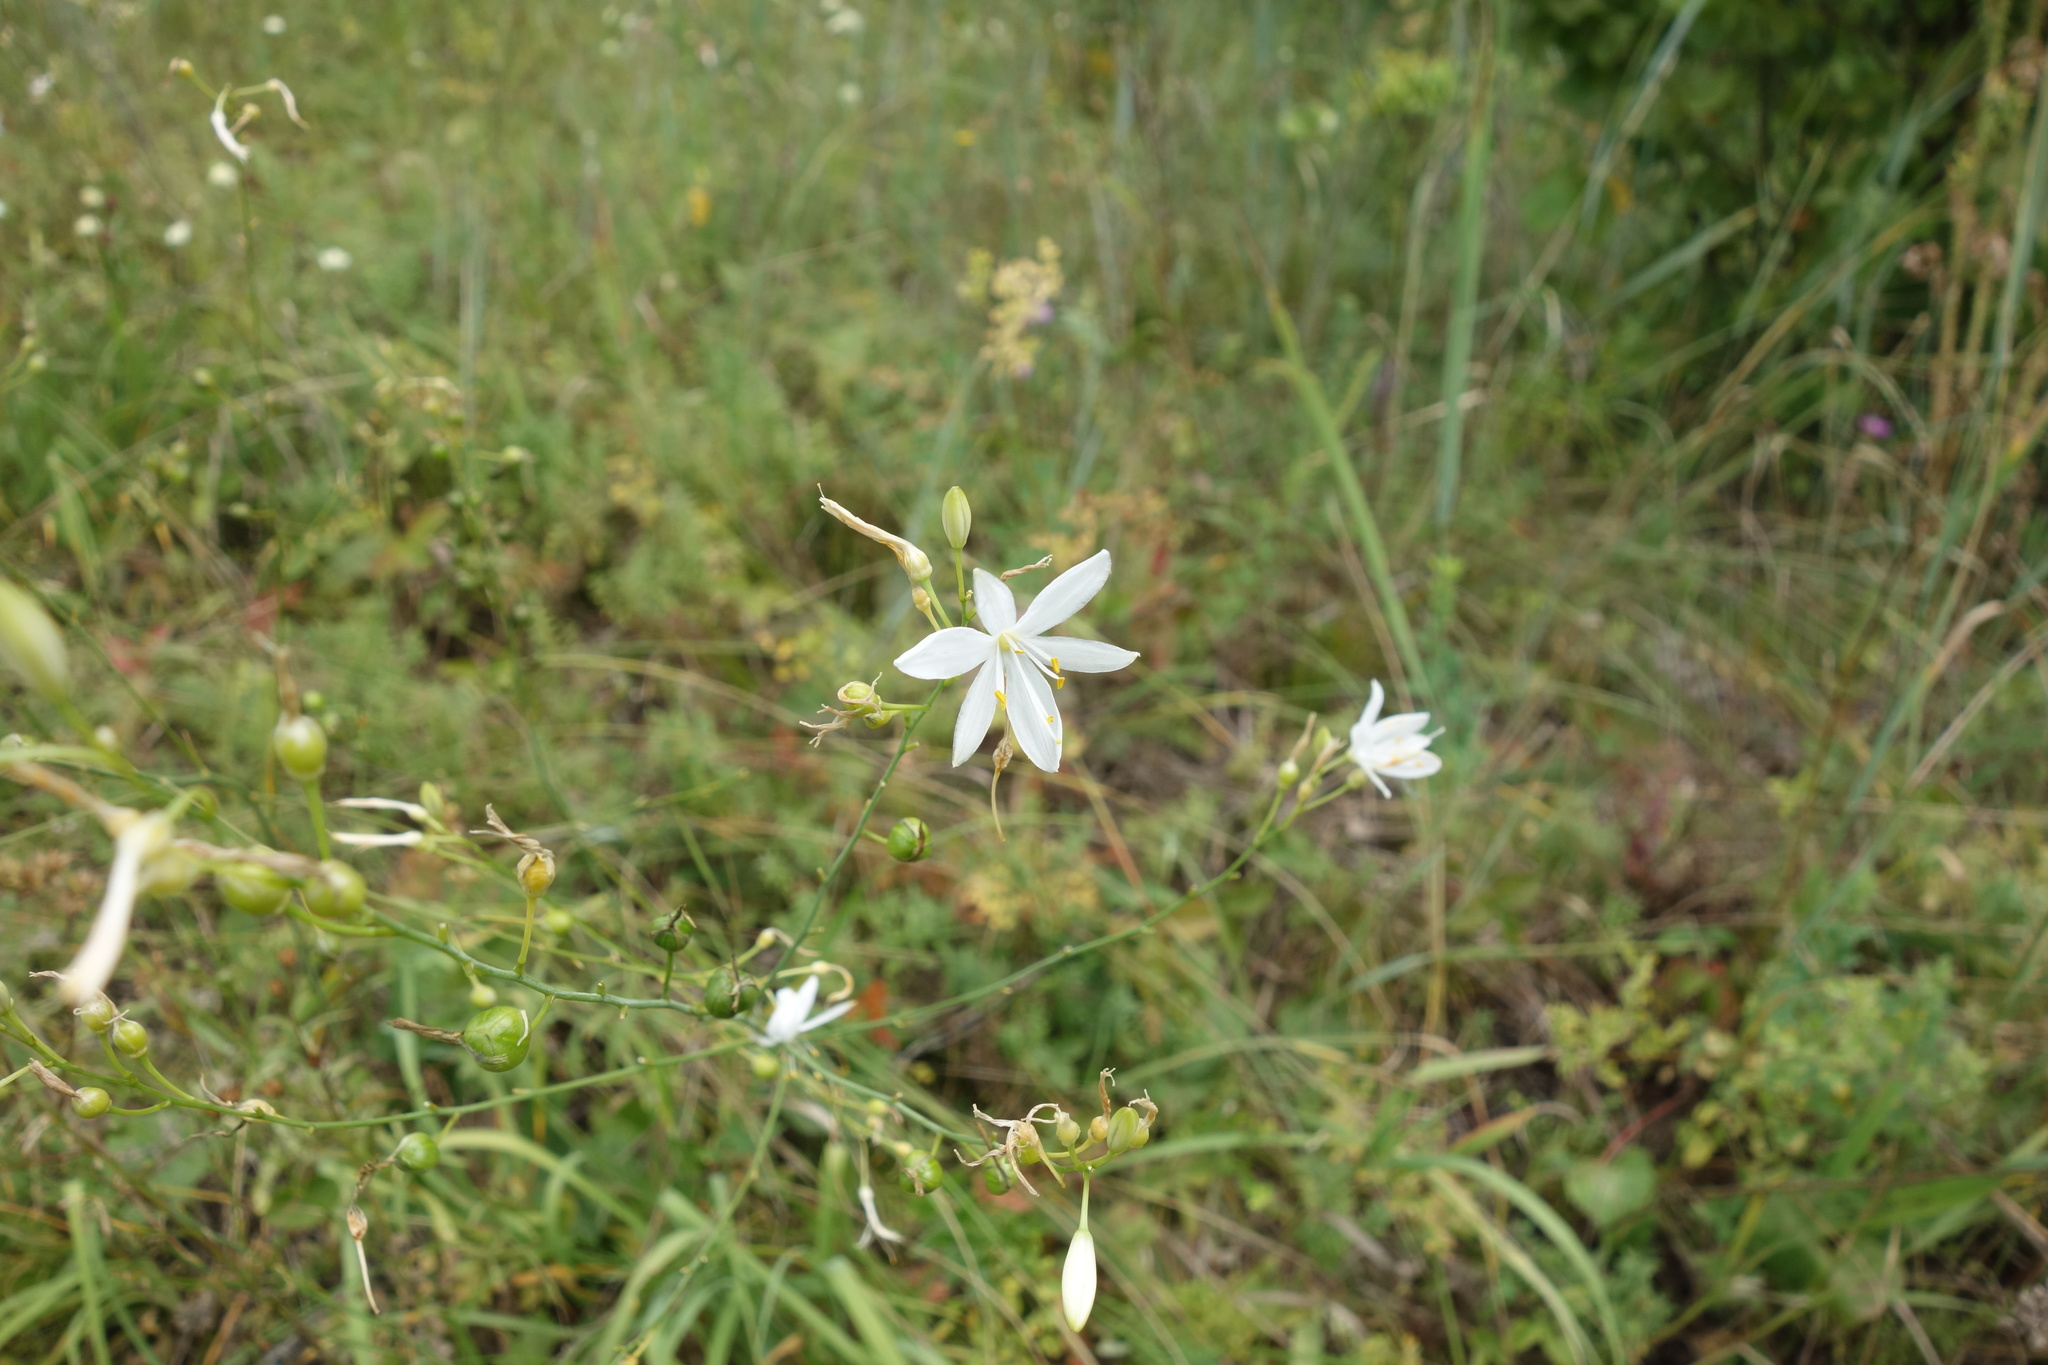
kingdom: Plantae
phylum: Tracheophyta
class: Liliopsida
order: Asparagales
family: Asparagaceae
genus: Anthericum
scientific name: Anthericum ramosum
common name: Branched st. bernard's-lily
